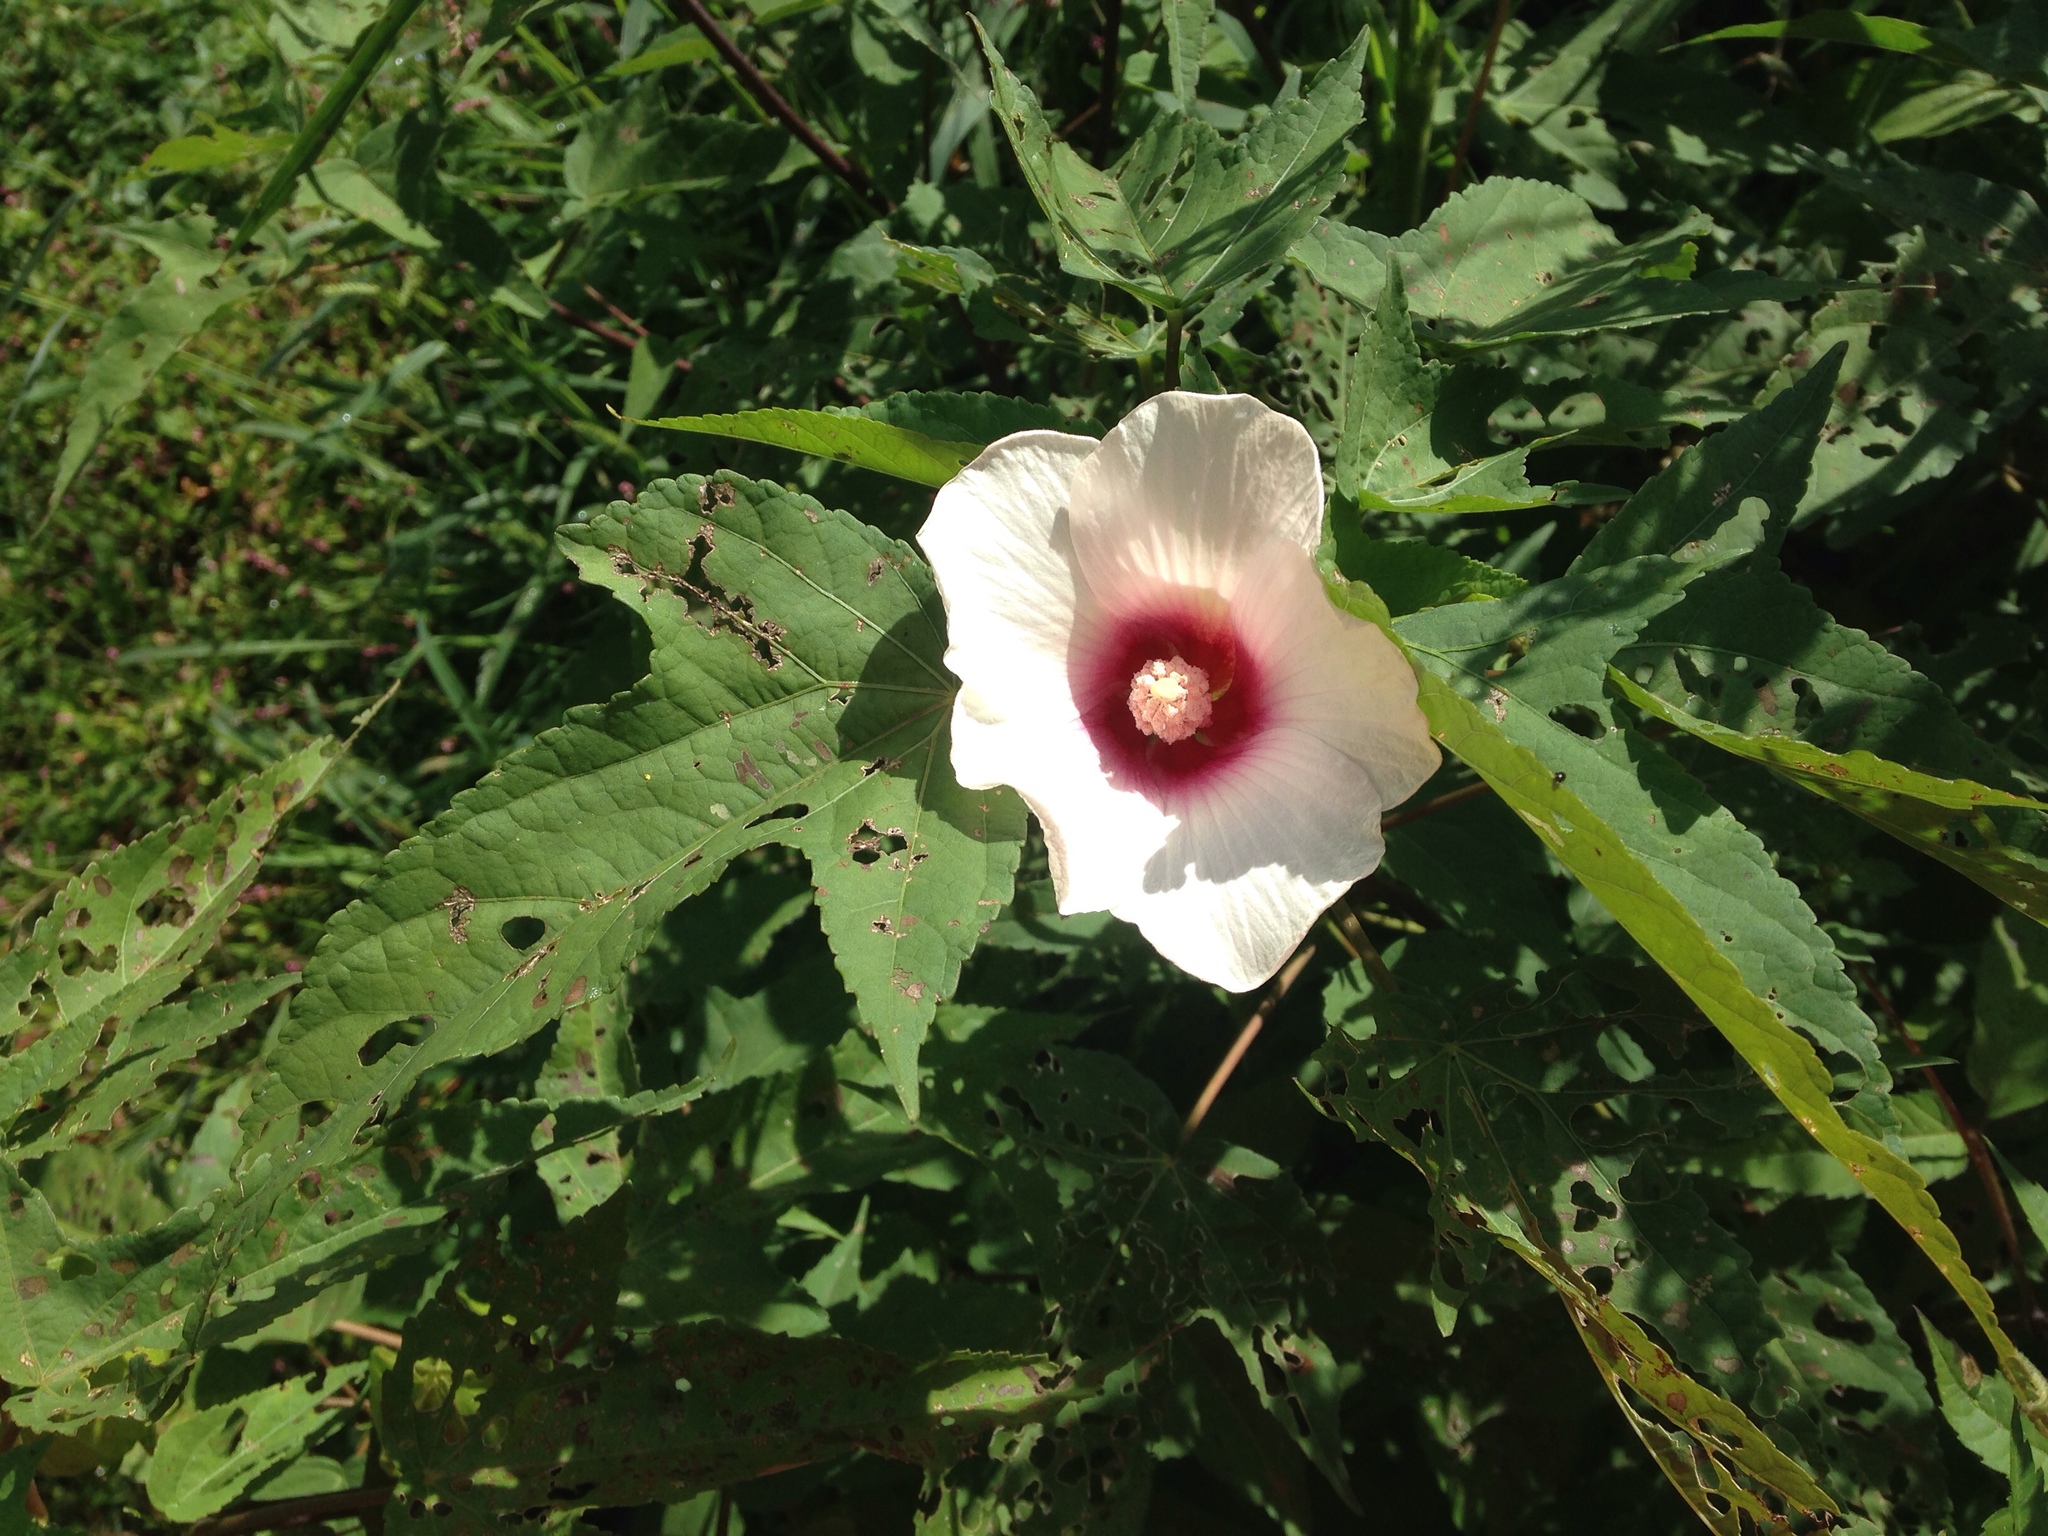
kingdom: Plantae
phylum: Tracheophyta
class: Magnoliopsida
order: Malvales
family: Malvaceae
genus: Hibiscus
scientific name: Hibiscus laevis
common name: Scarlet rose-mallow
